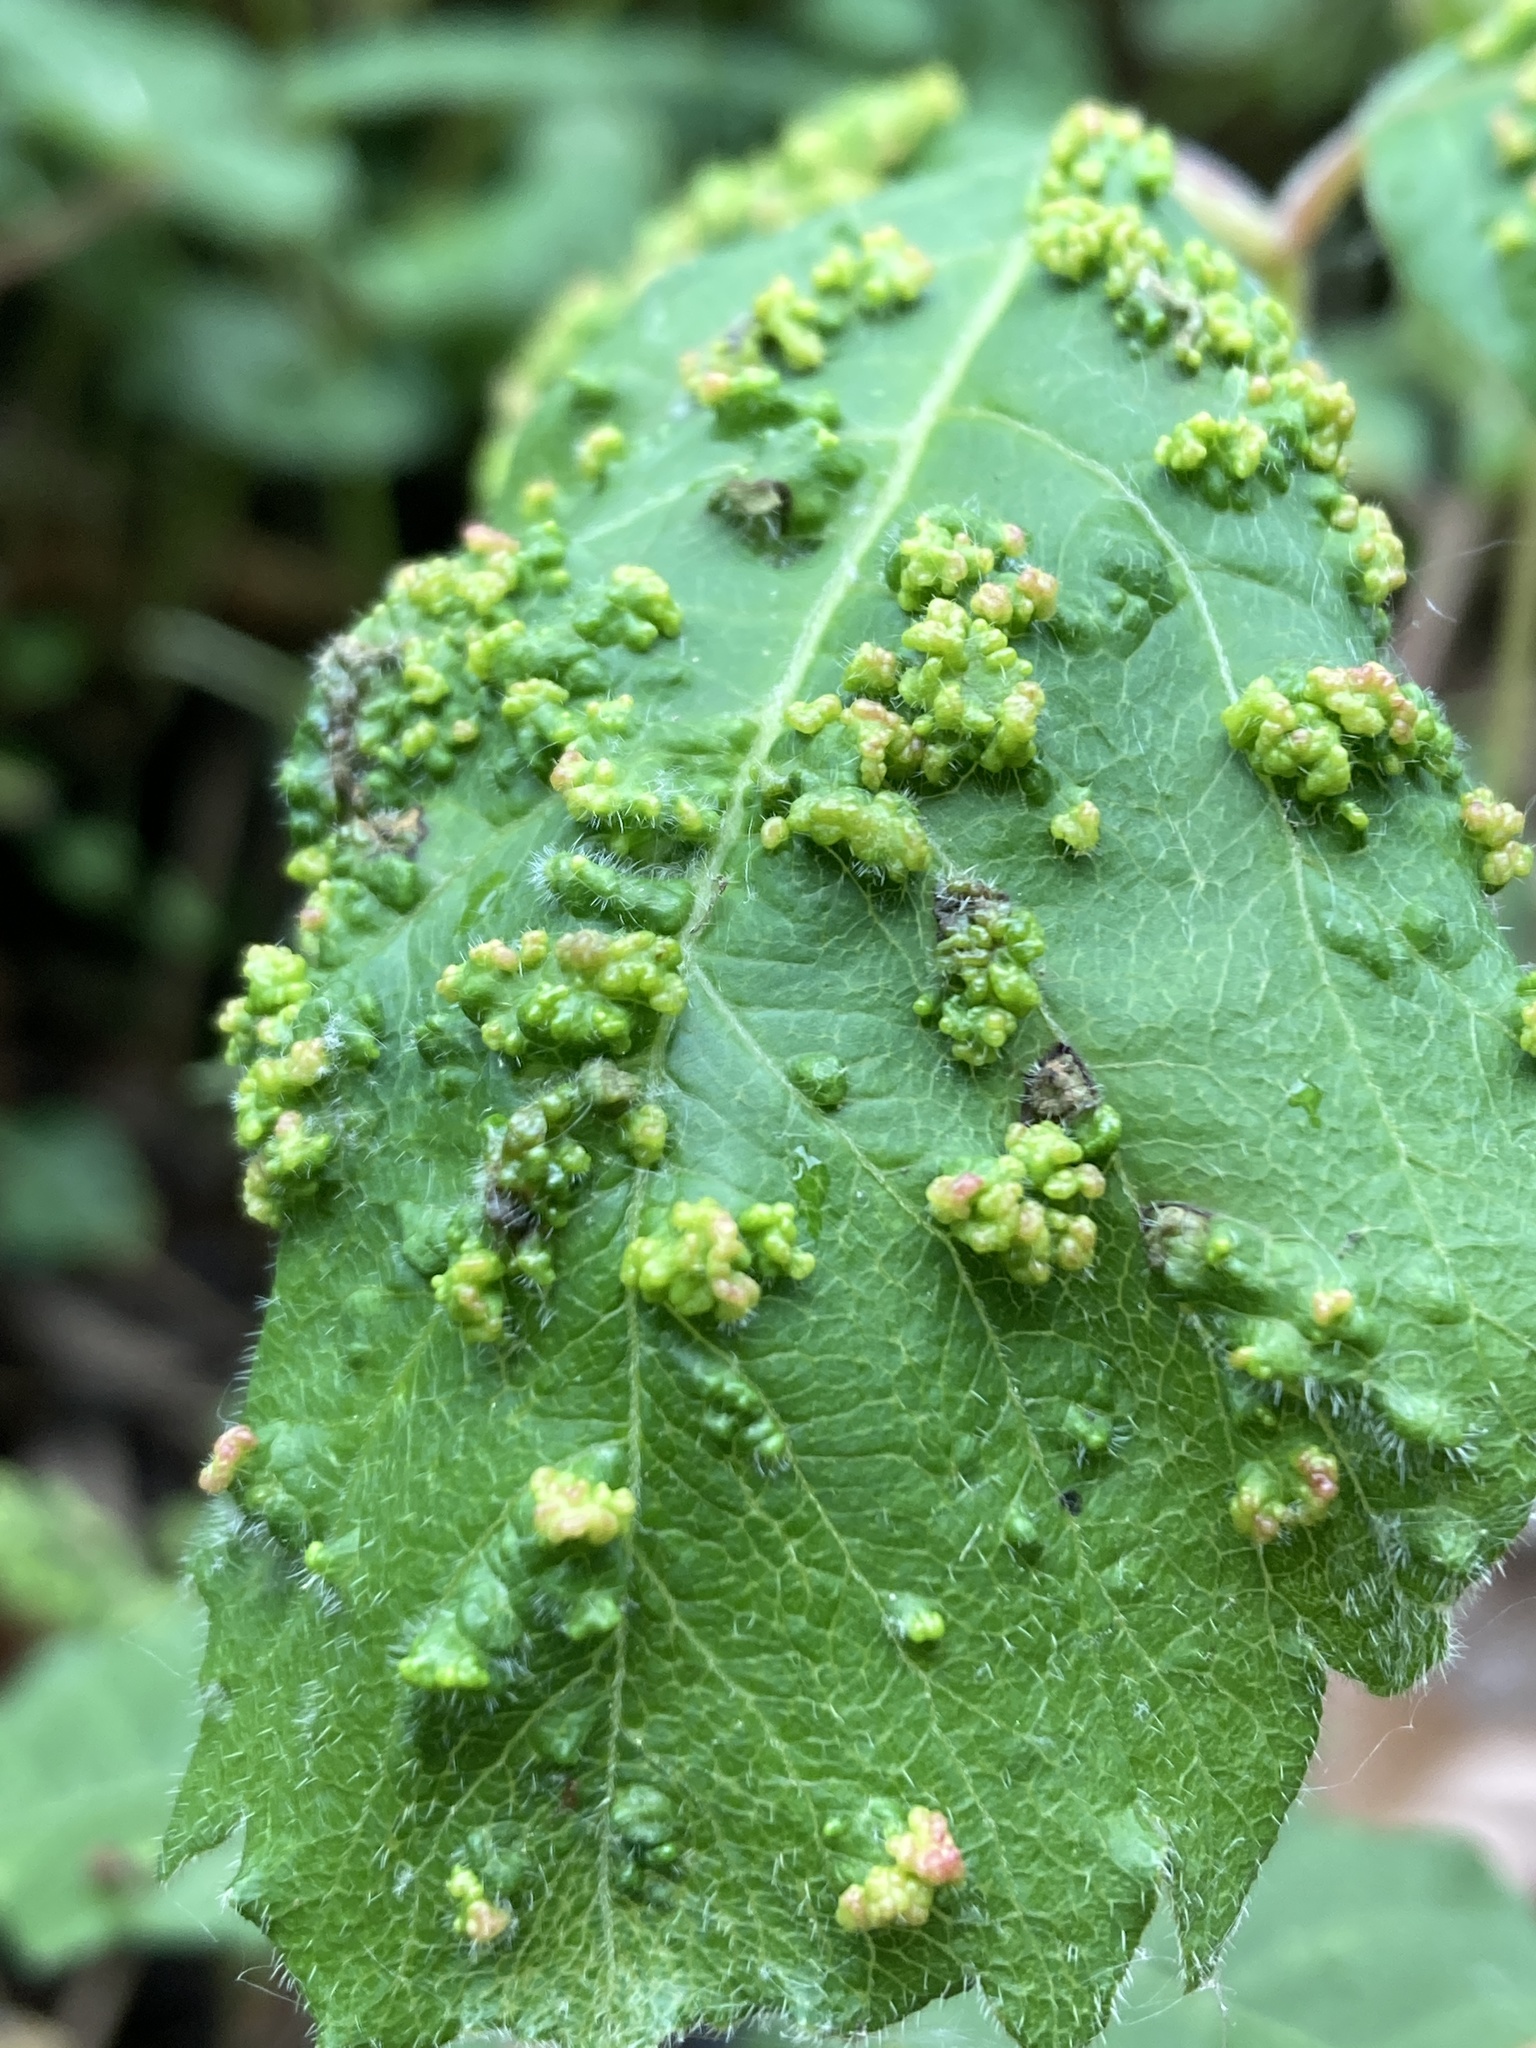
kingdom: Animalia
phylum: Arthropoda
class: Arachnida
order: Trombidiformes
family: Eriophyidae
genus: Aculops
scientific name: Aculops
